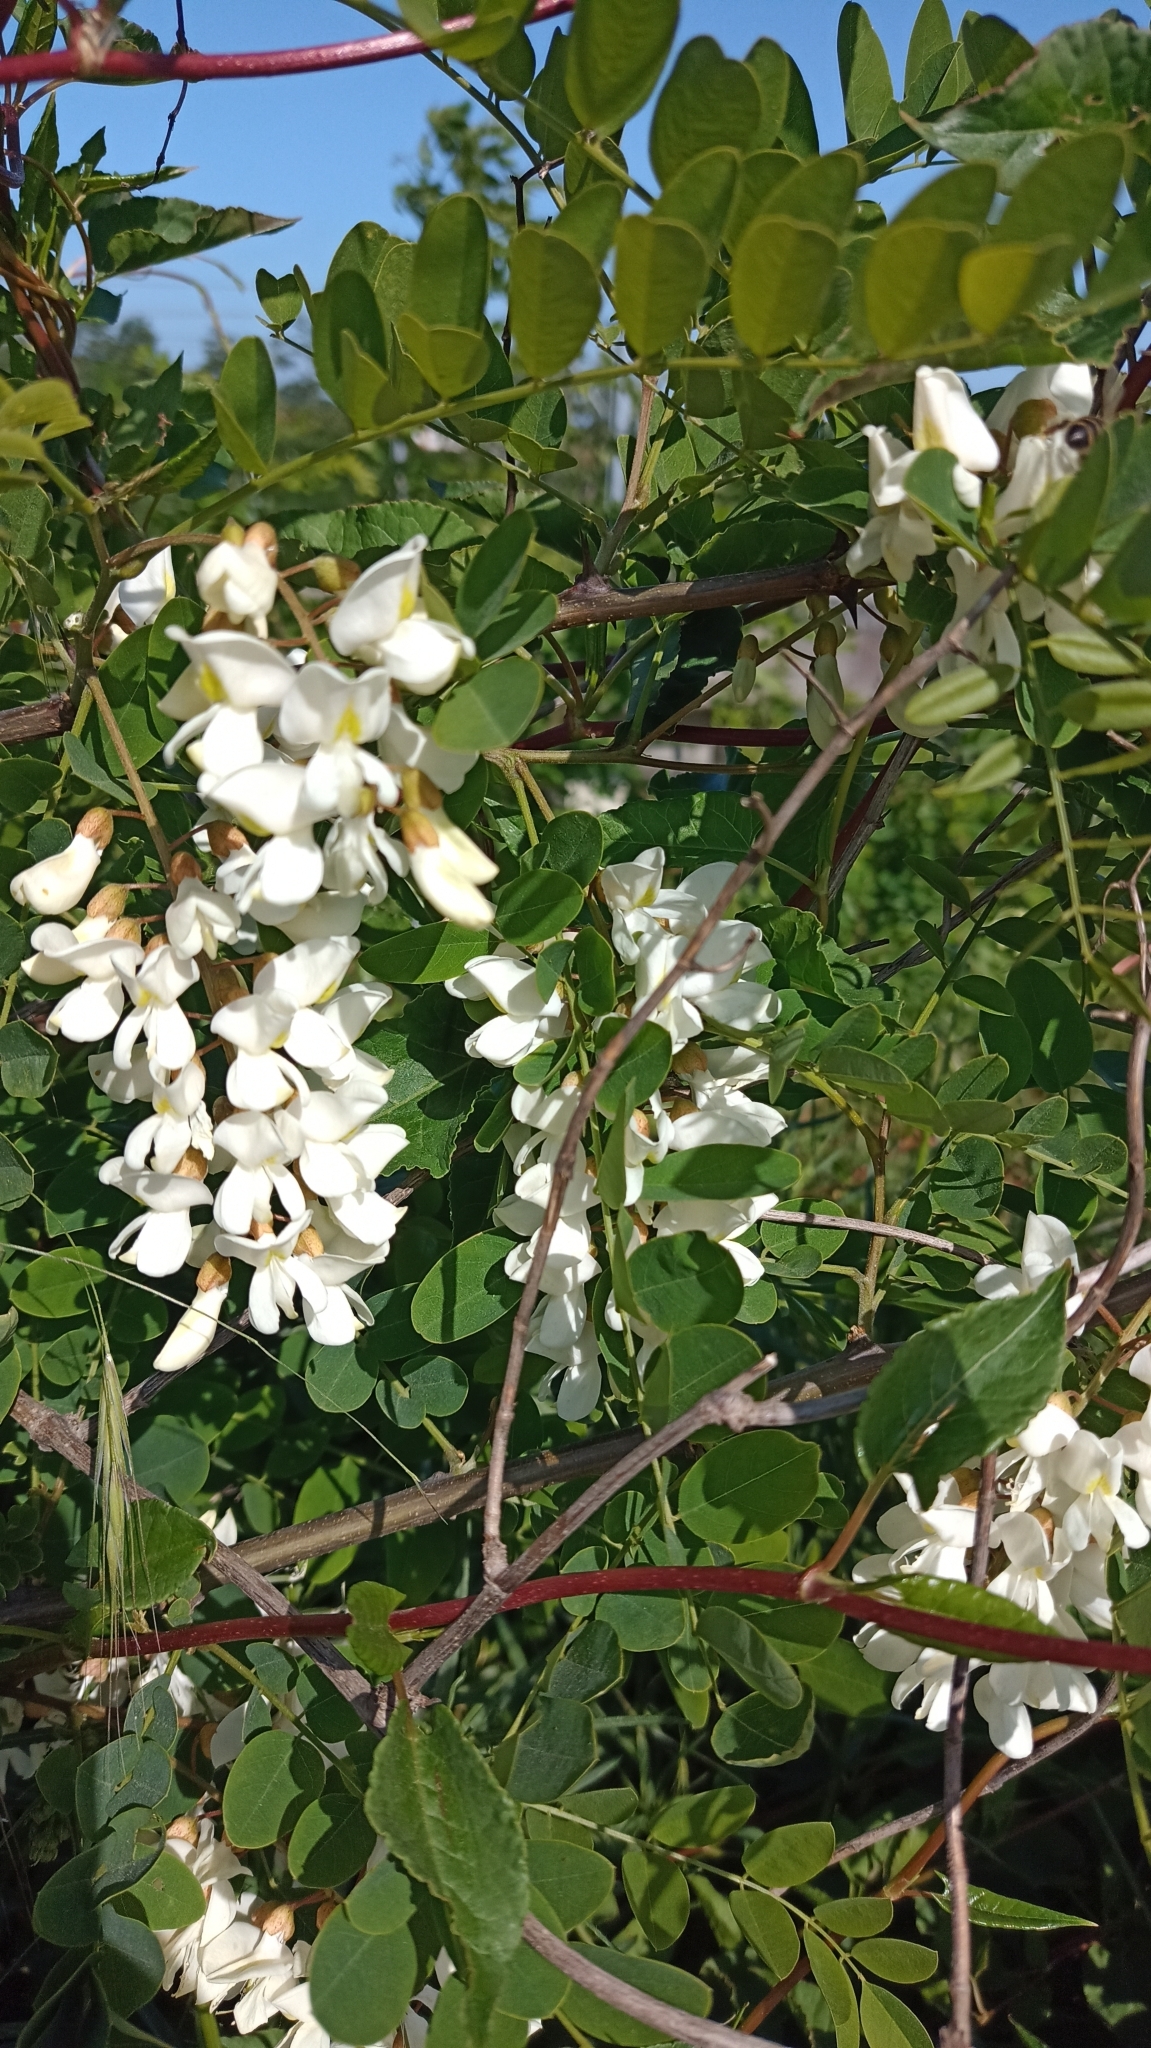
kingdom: Plantae
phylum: Tracheophyta
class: Magnoliopsida
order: Fabales
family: Fabaceae
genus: Robinia
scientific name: Robinia pseudoacacia
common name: Black locust
